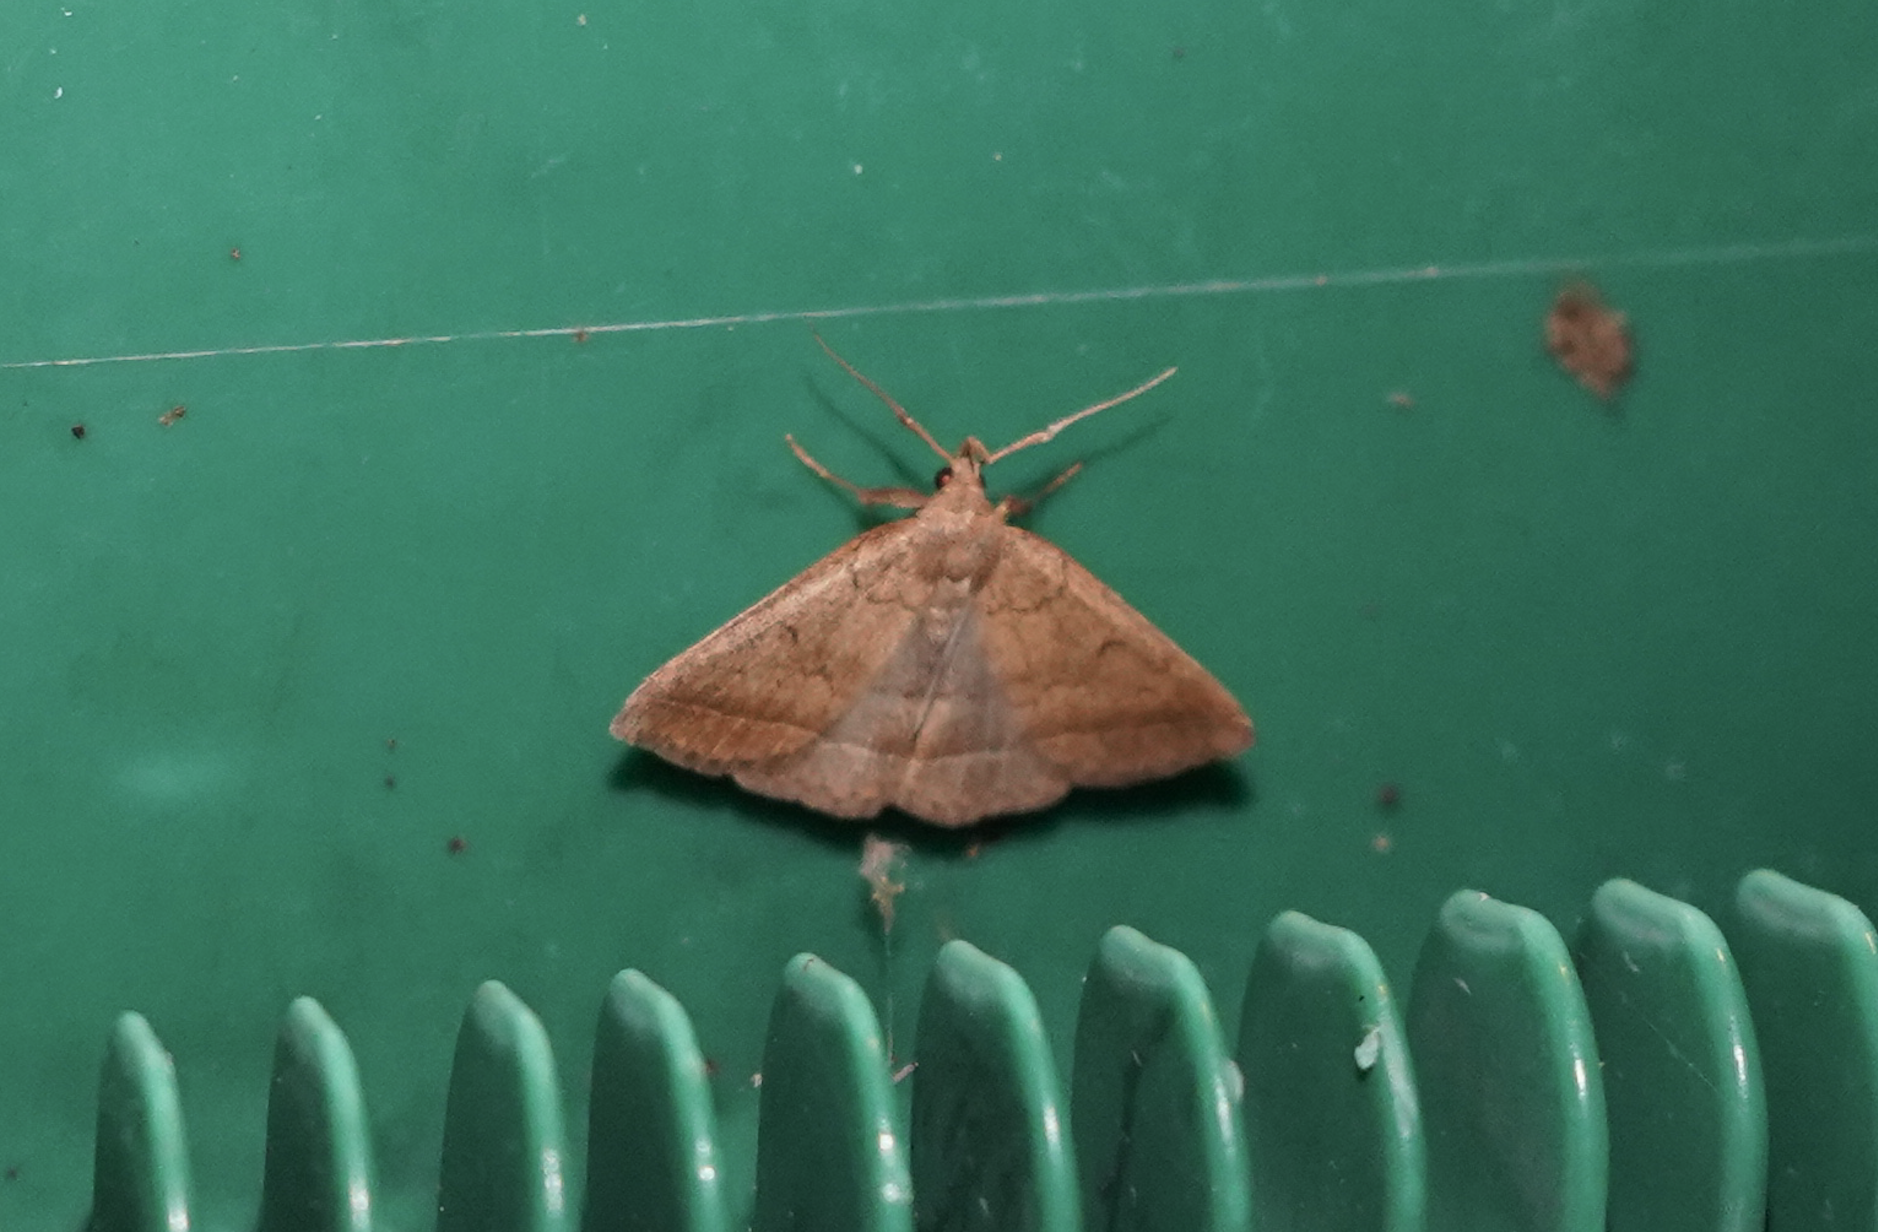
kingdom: Animalia
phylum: Arthropoda
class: Insecta
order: Lepidoptera
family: Erebidae
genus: Zanclognatha
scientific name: Zanclognatha jacchusalis
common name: Yellowish zanclognatha
